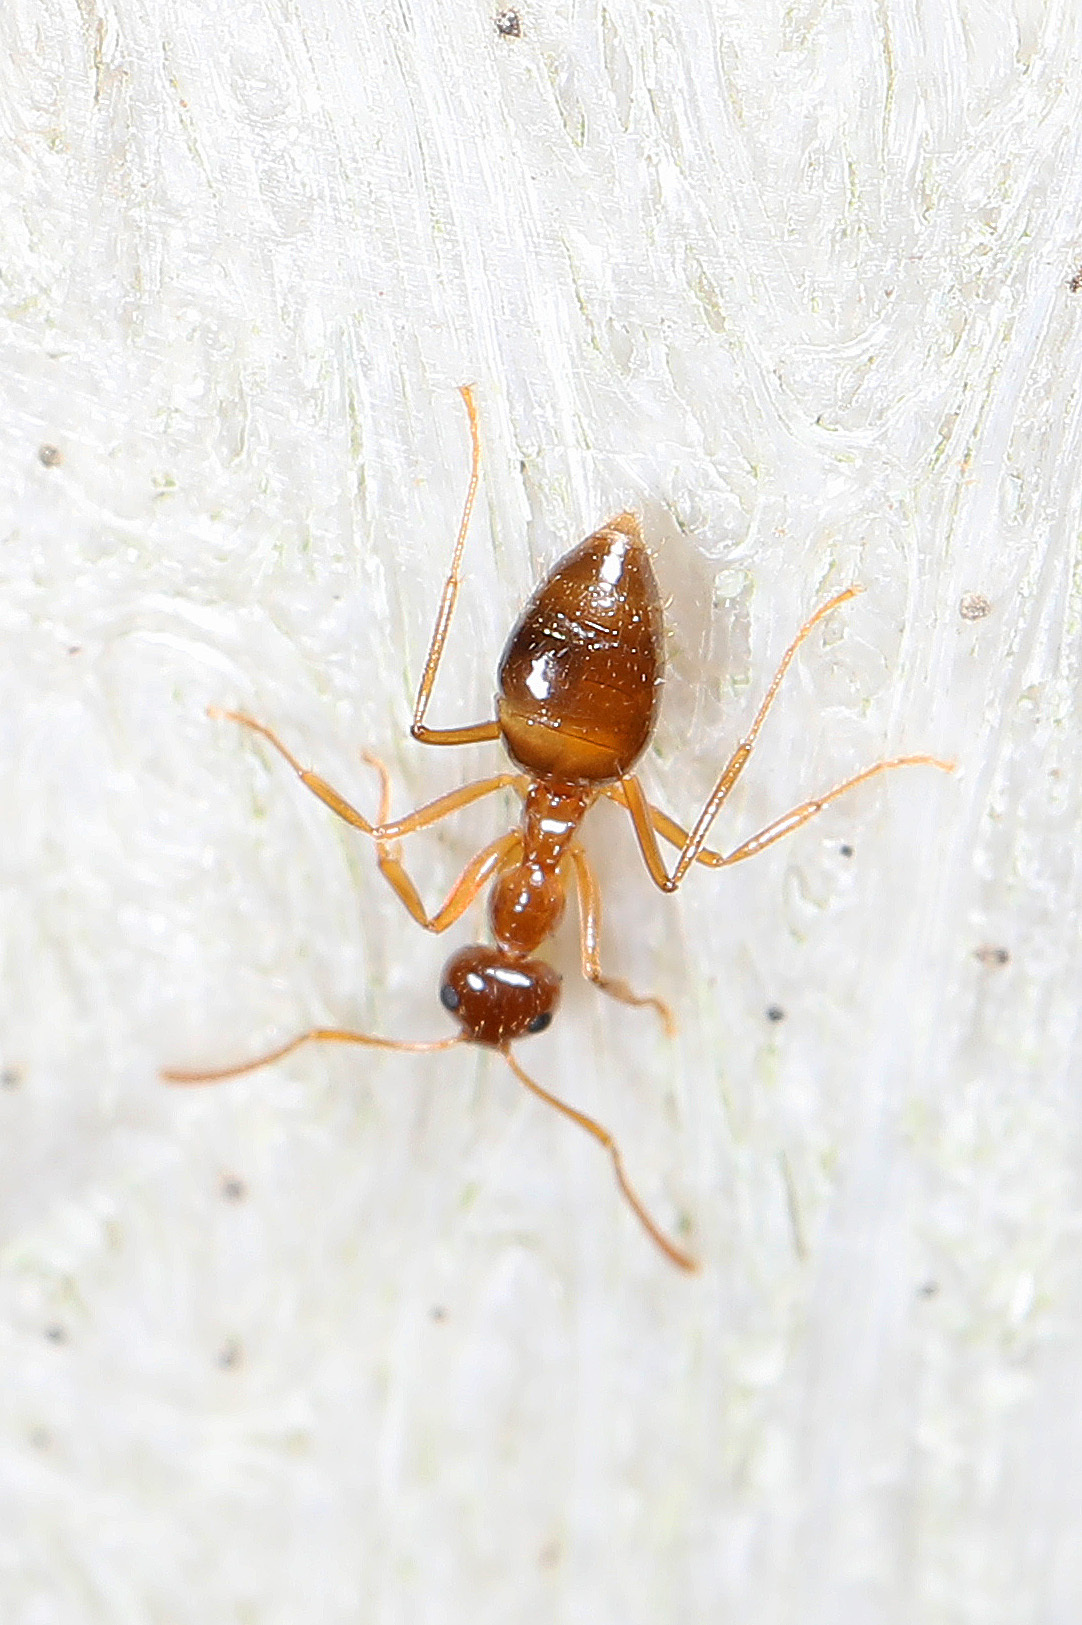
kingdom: Animalia
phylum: Arthropoda
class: Insecta
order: Hymenoptera
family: Formicidae
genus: Prenolepis
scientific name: Prenolepis imparis
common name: Small honey ant
